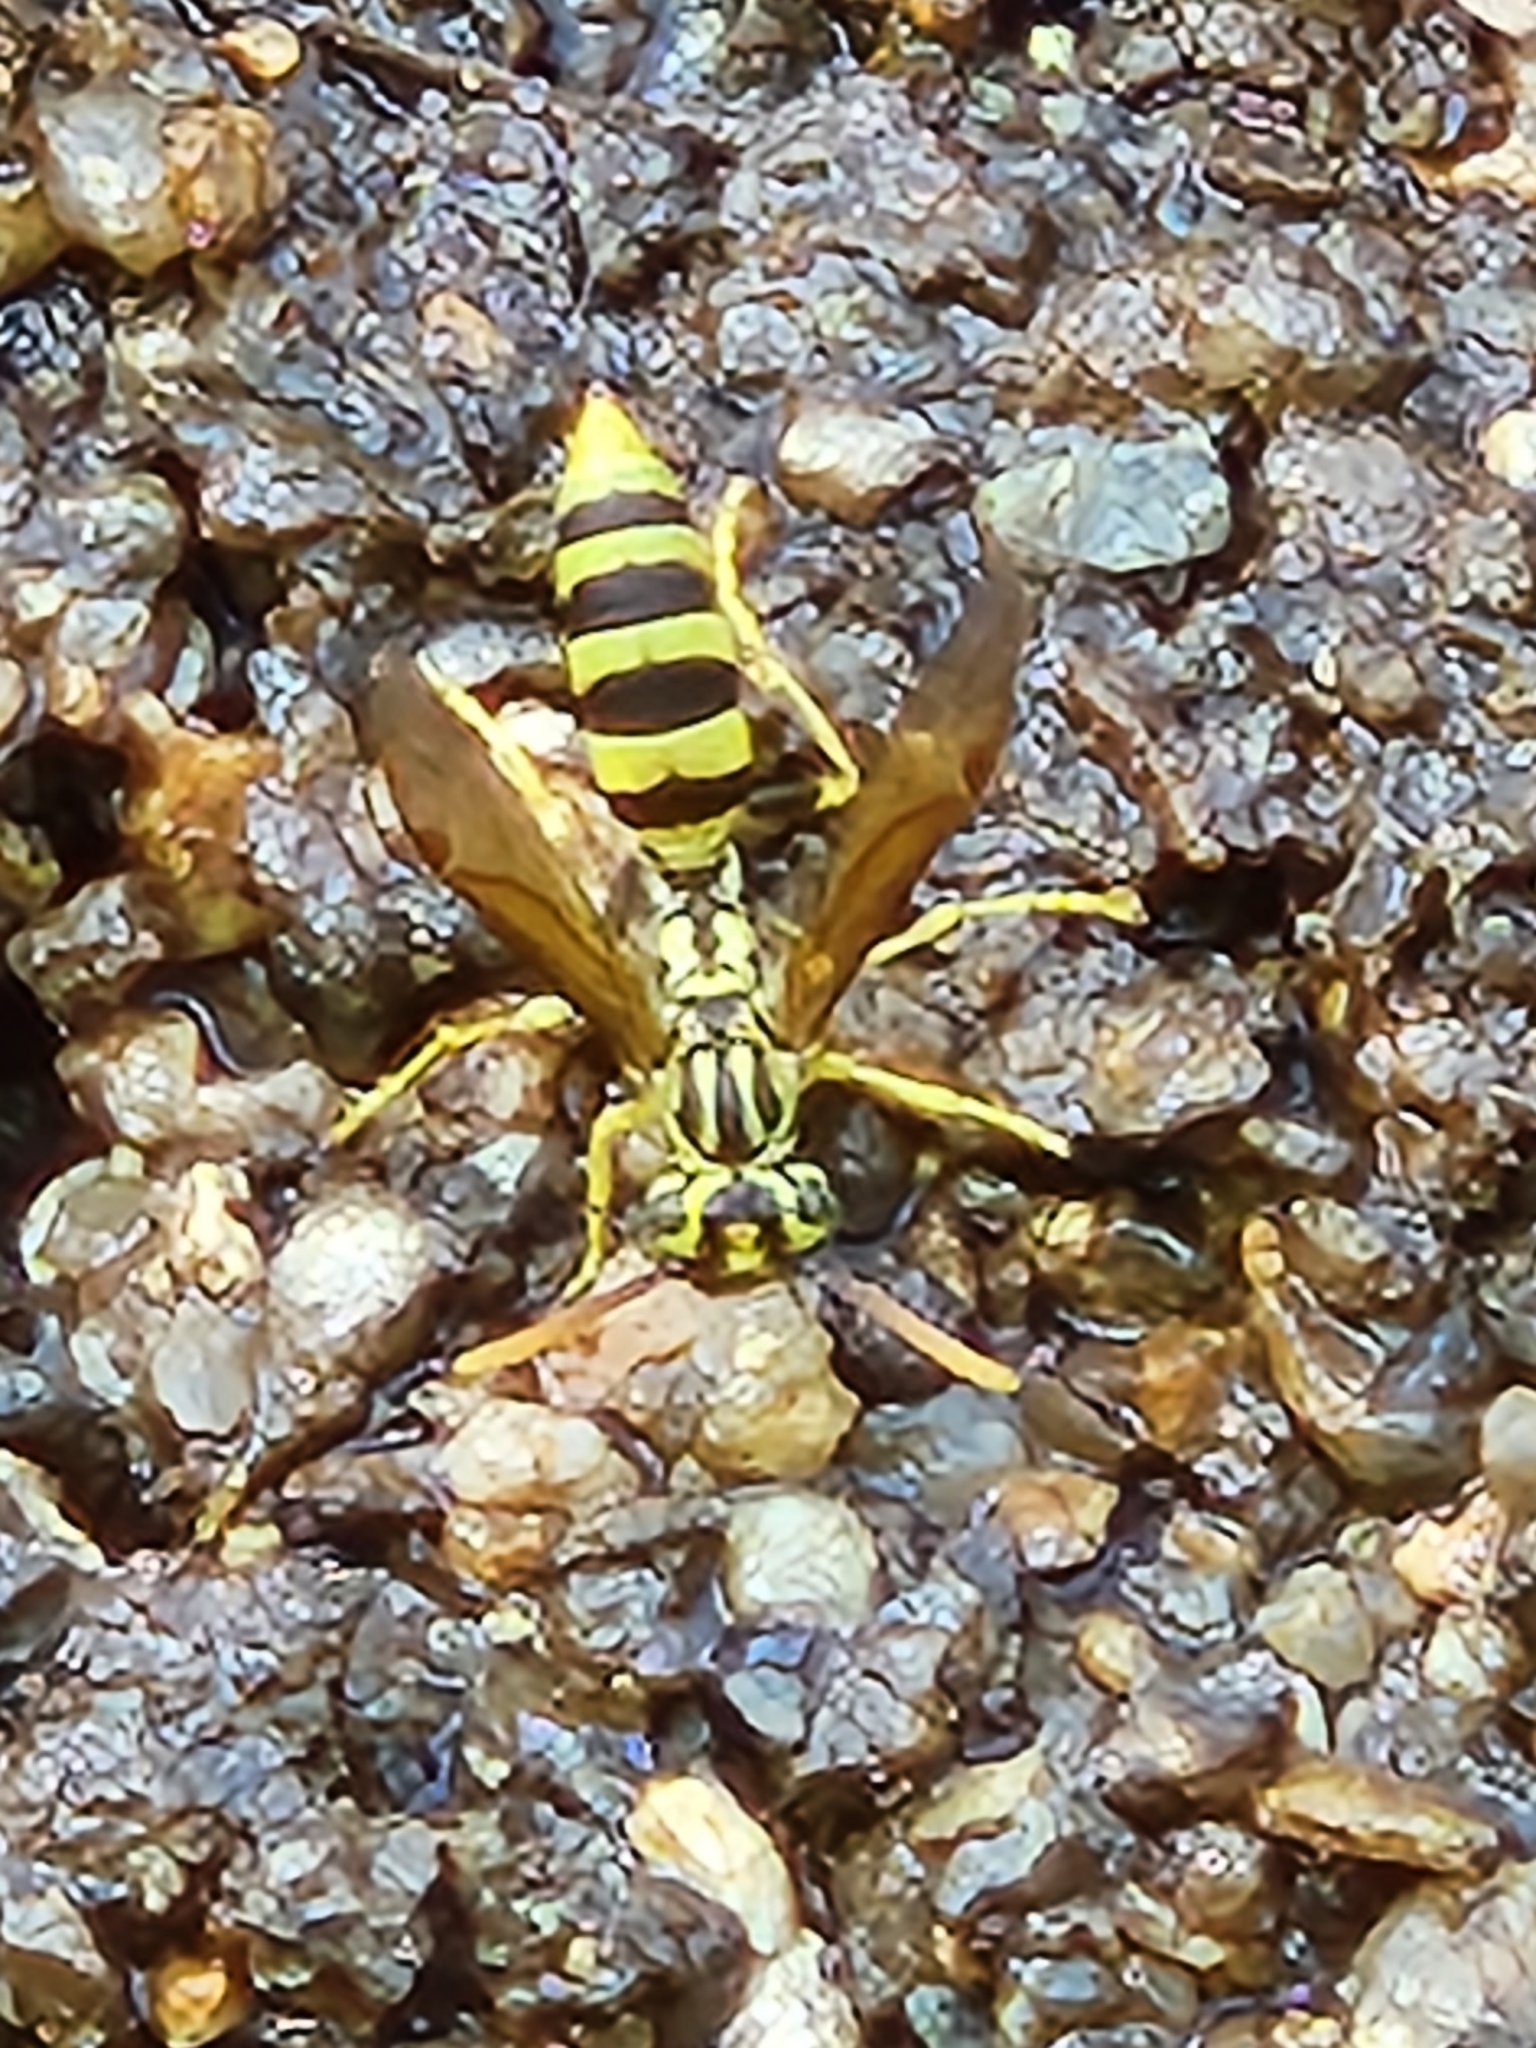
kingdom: Animalia
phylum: Arthropoda
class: Insecta
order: Hymenoptera
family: Vespidae
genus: Agelaia
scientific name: Agelaia areata
